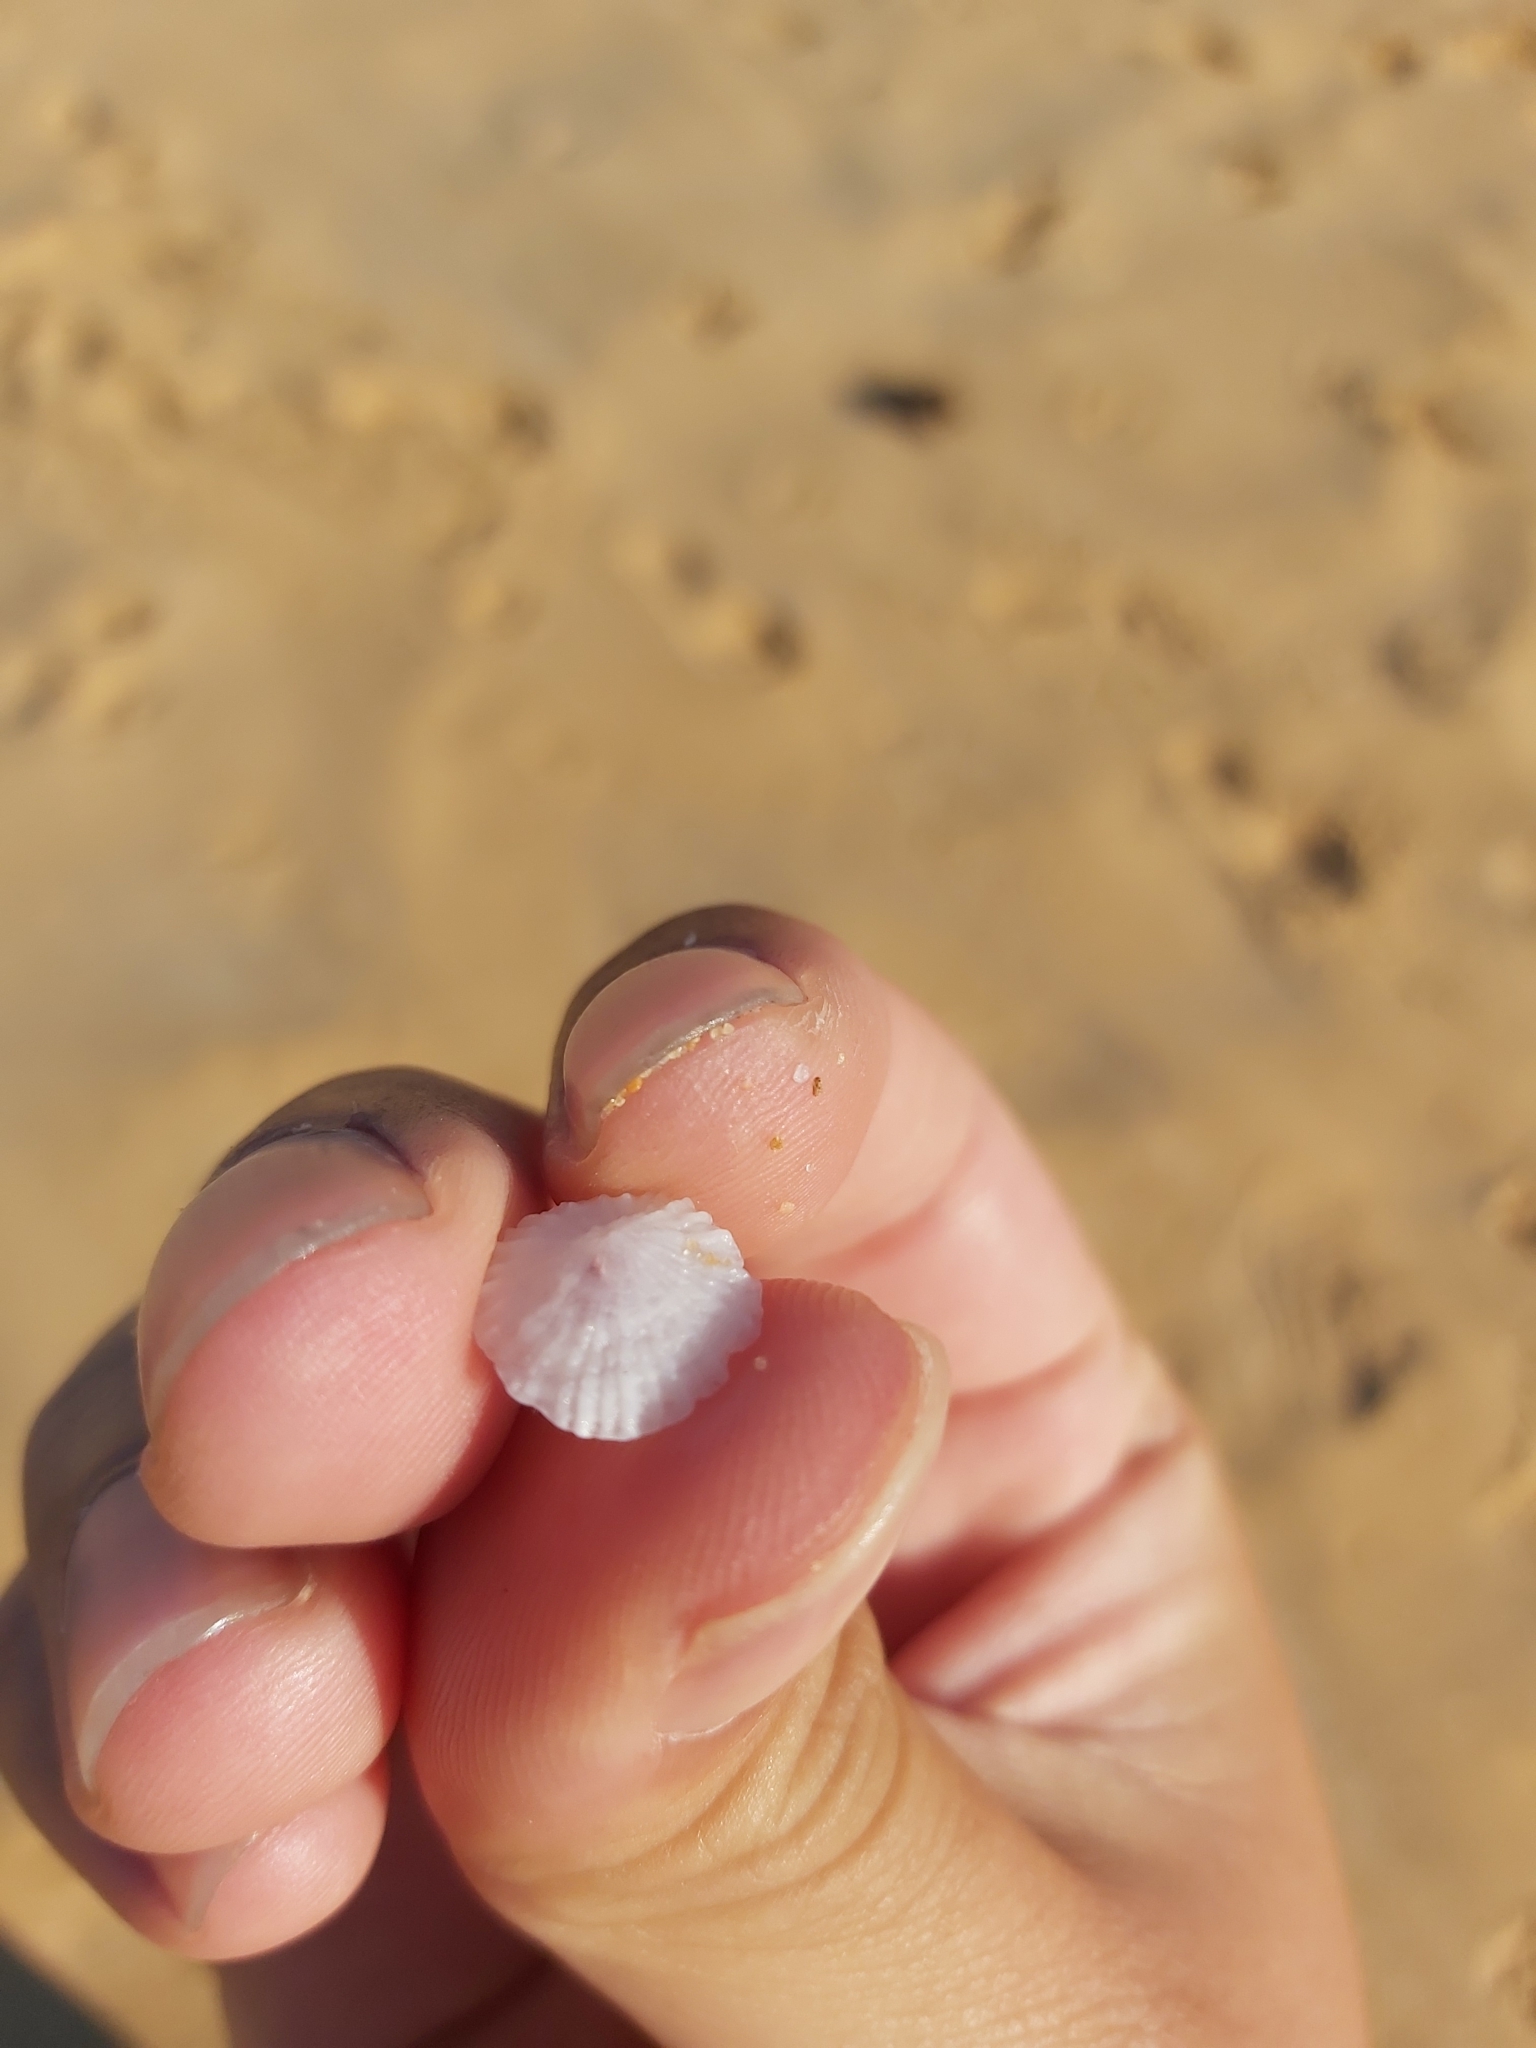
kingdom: Animalia
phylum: Mollusca
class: Gastropoda
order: Ellobiida
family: Trimusculidae
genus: Trimusculus
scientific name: Trimusculus conicus
